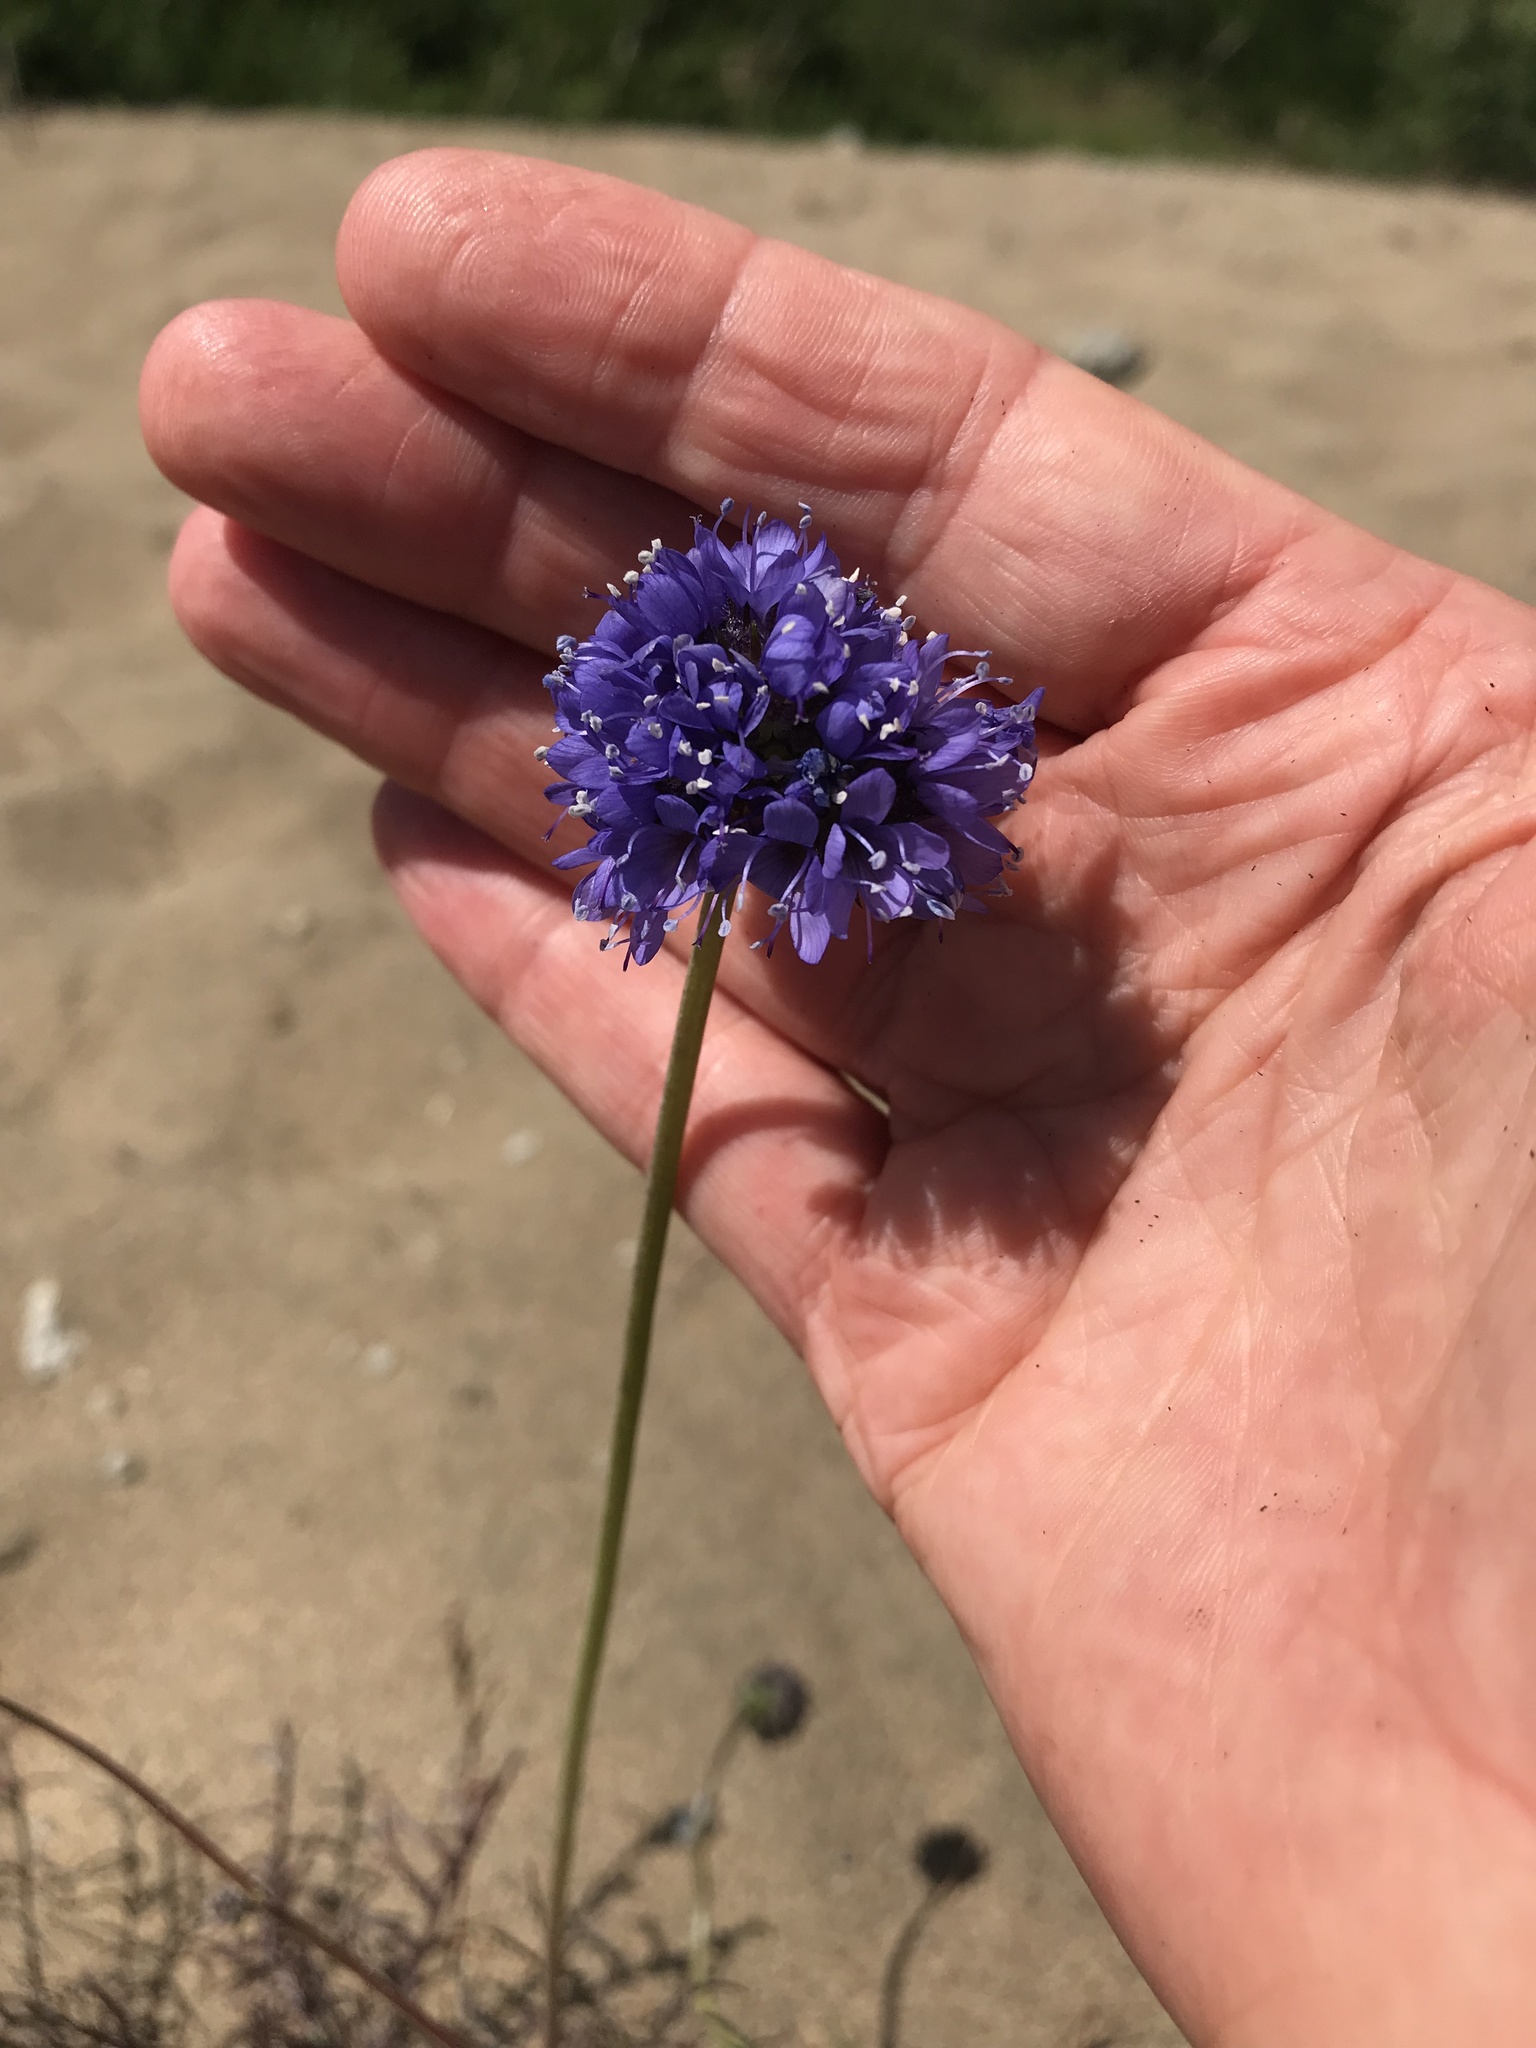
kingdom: Plantae
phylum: Tracheophyta
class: Magnoliopsida
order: Ericales
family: Polemoniaceae
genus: Gilia
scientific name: Gilia capitata
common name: Bluehead gilia
